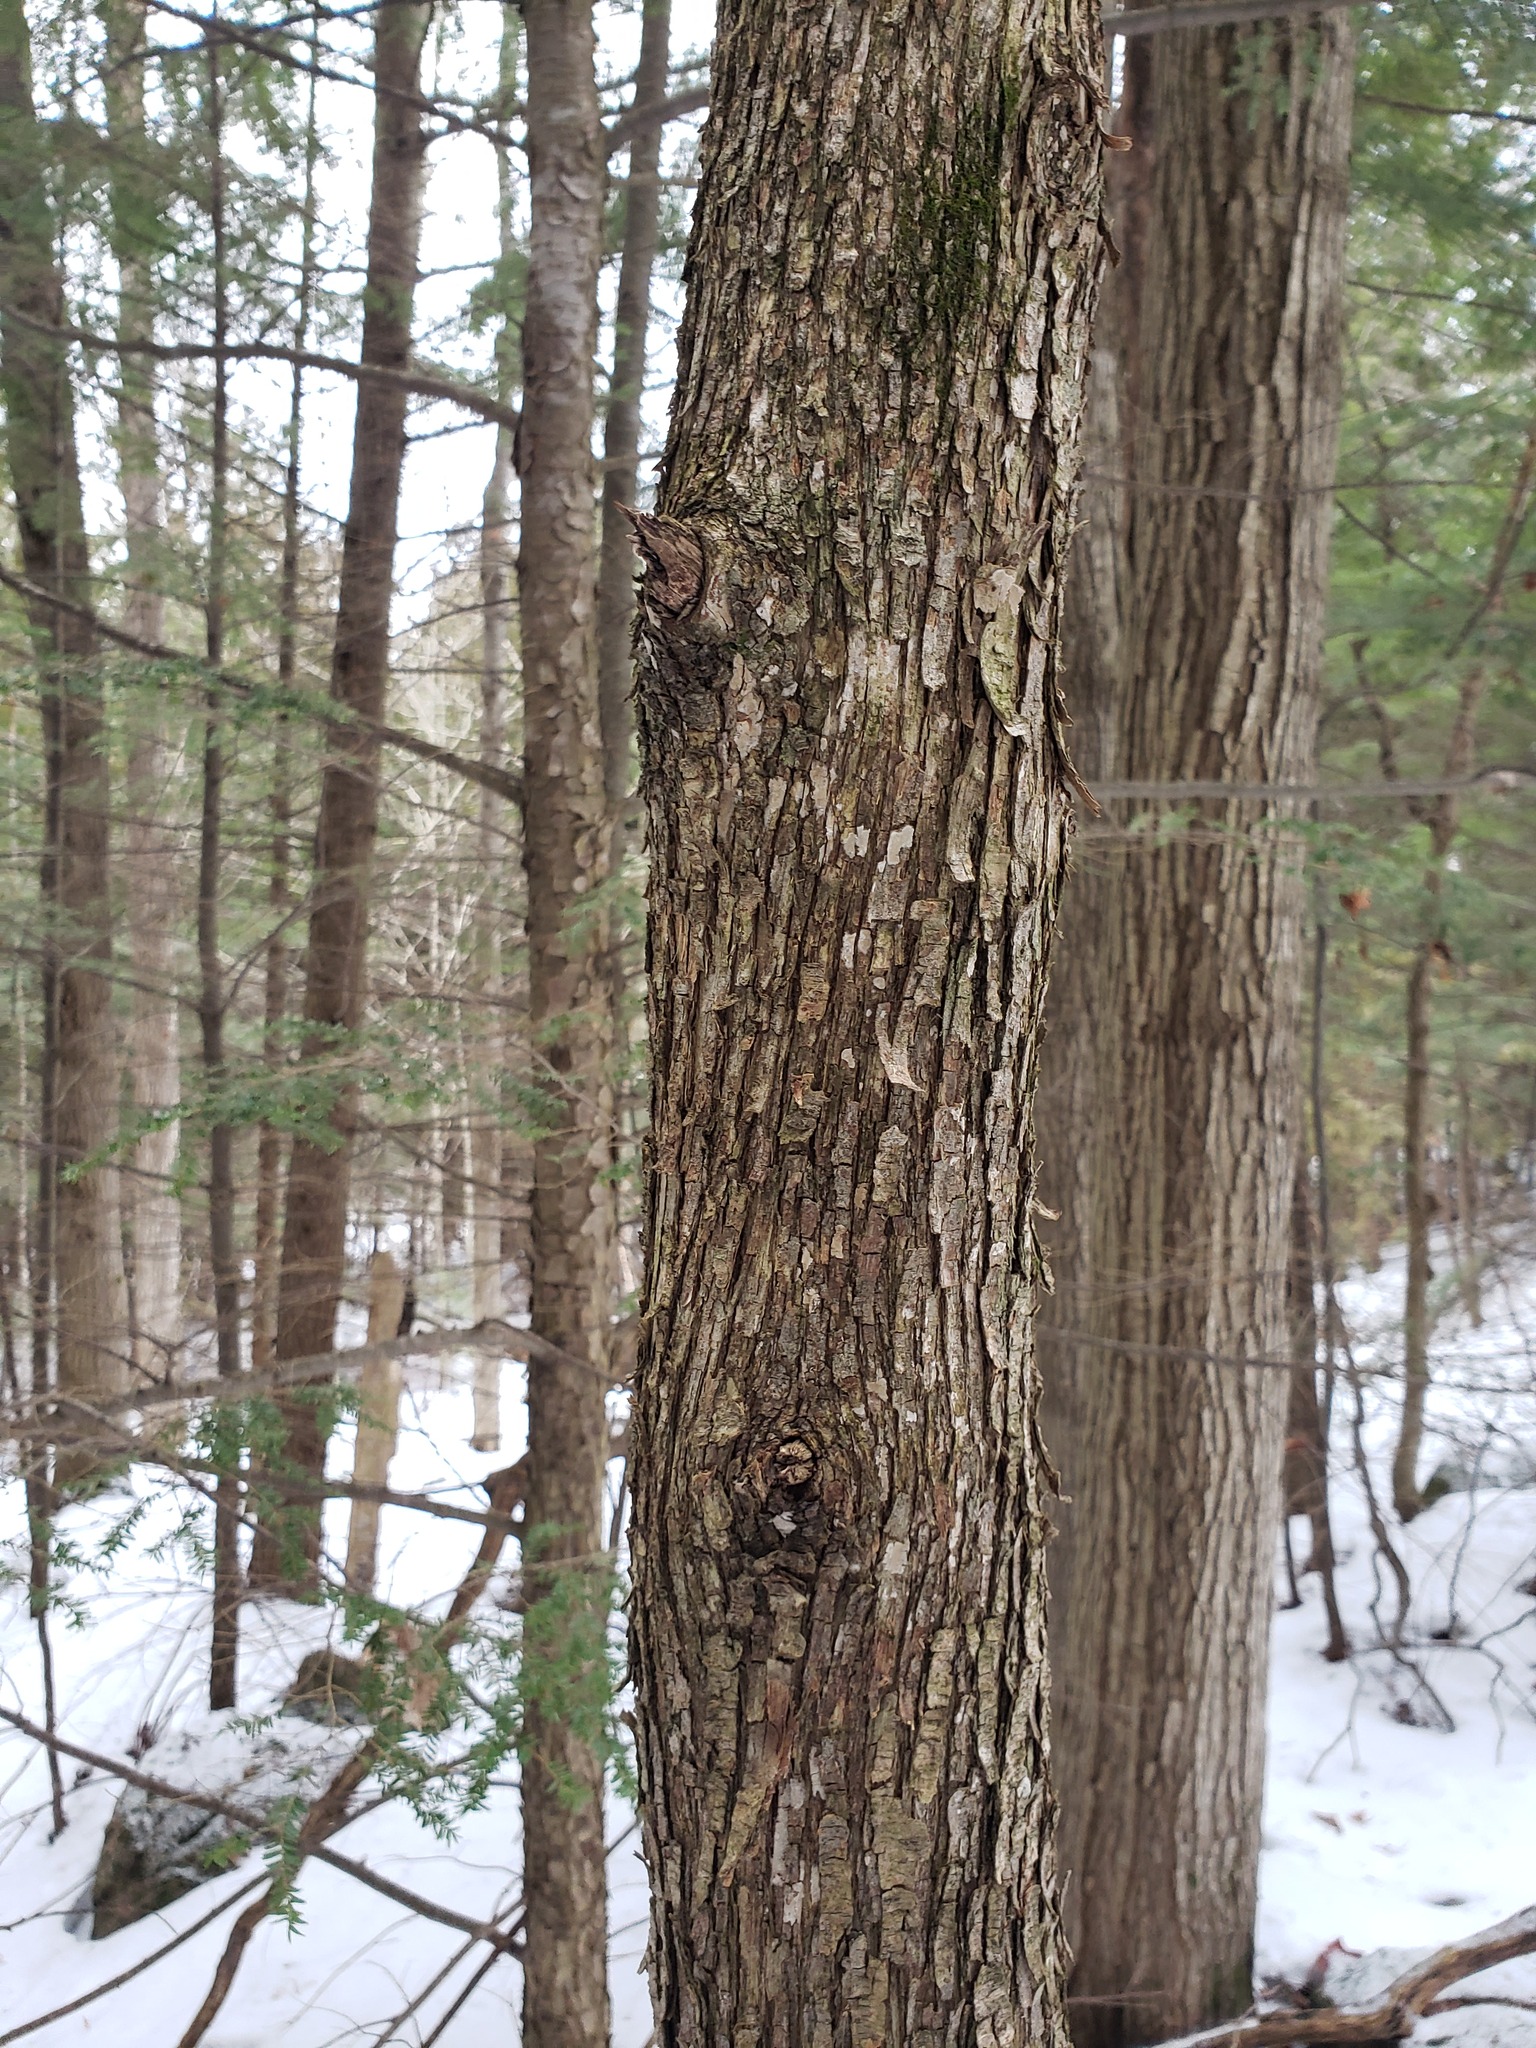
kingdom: Plantae
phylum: Tracheophyta
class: Magnoliopsida
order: Fagales
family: Betulaceae
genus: Ostrya
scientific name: Ostrya virginiana
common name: Ironwood
